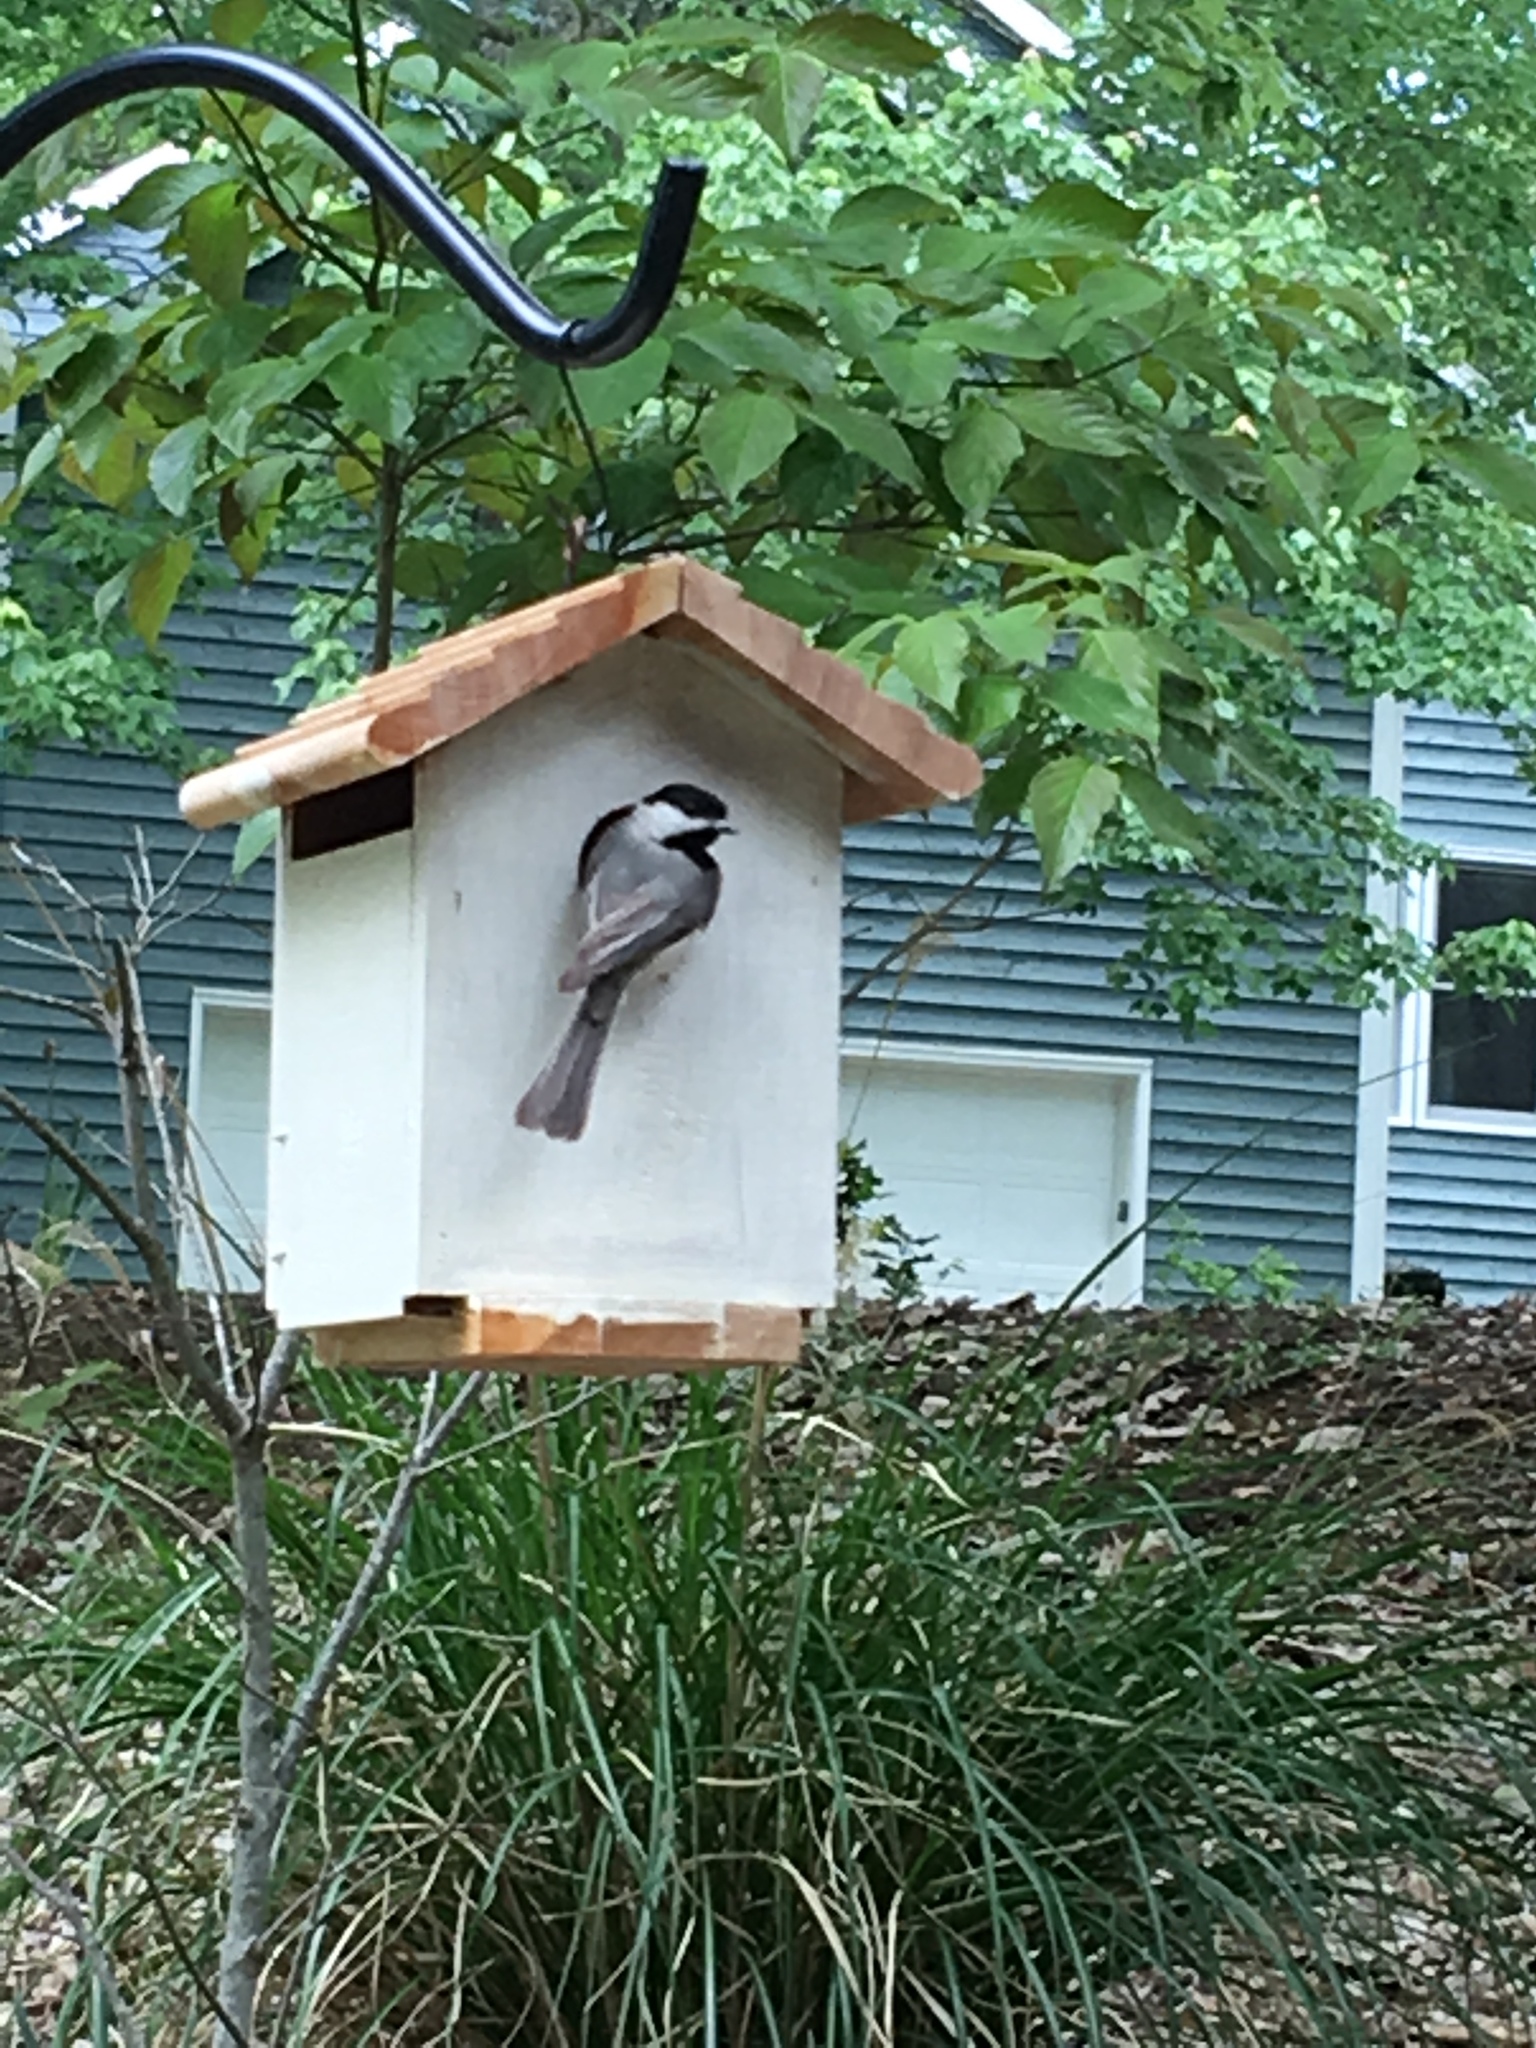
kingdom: Animalia
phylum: Chordata
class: Aves
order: Passeriformes
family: Paridae
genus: Poecile
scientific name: Poecile carolinensis
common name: Carolina chickadee
